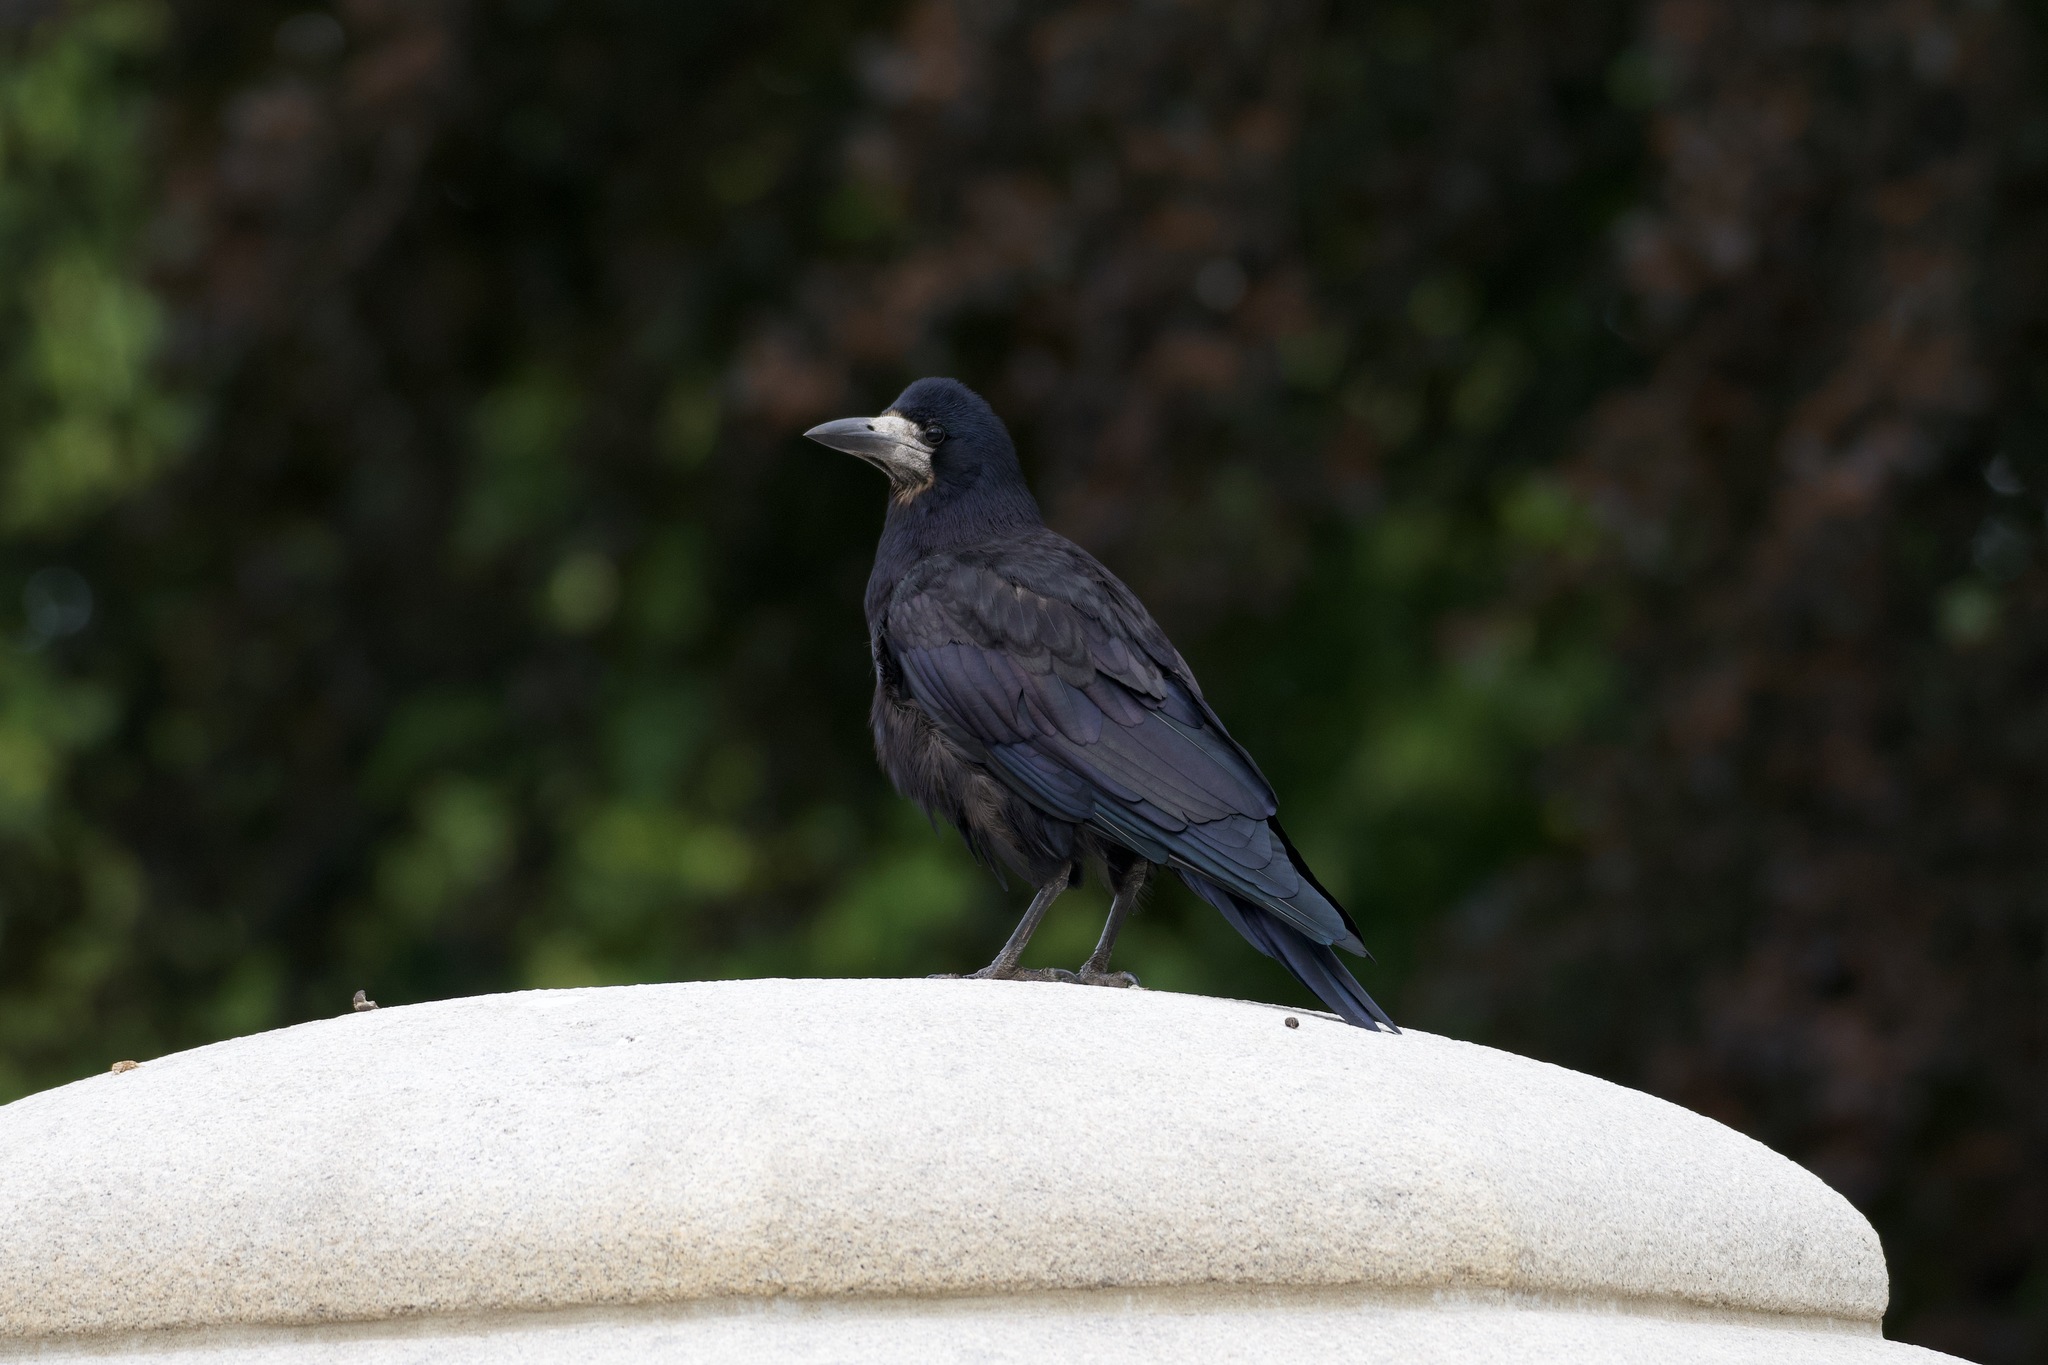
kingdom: Animalia
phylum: Chordata
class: Aves
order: Passeriformes
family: Corvidae
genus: Corvus
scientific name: Corvus frugilegus
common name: Rook
